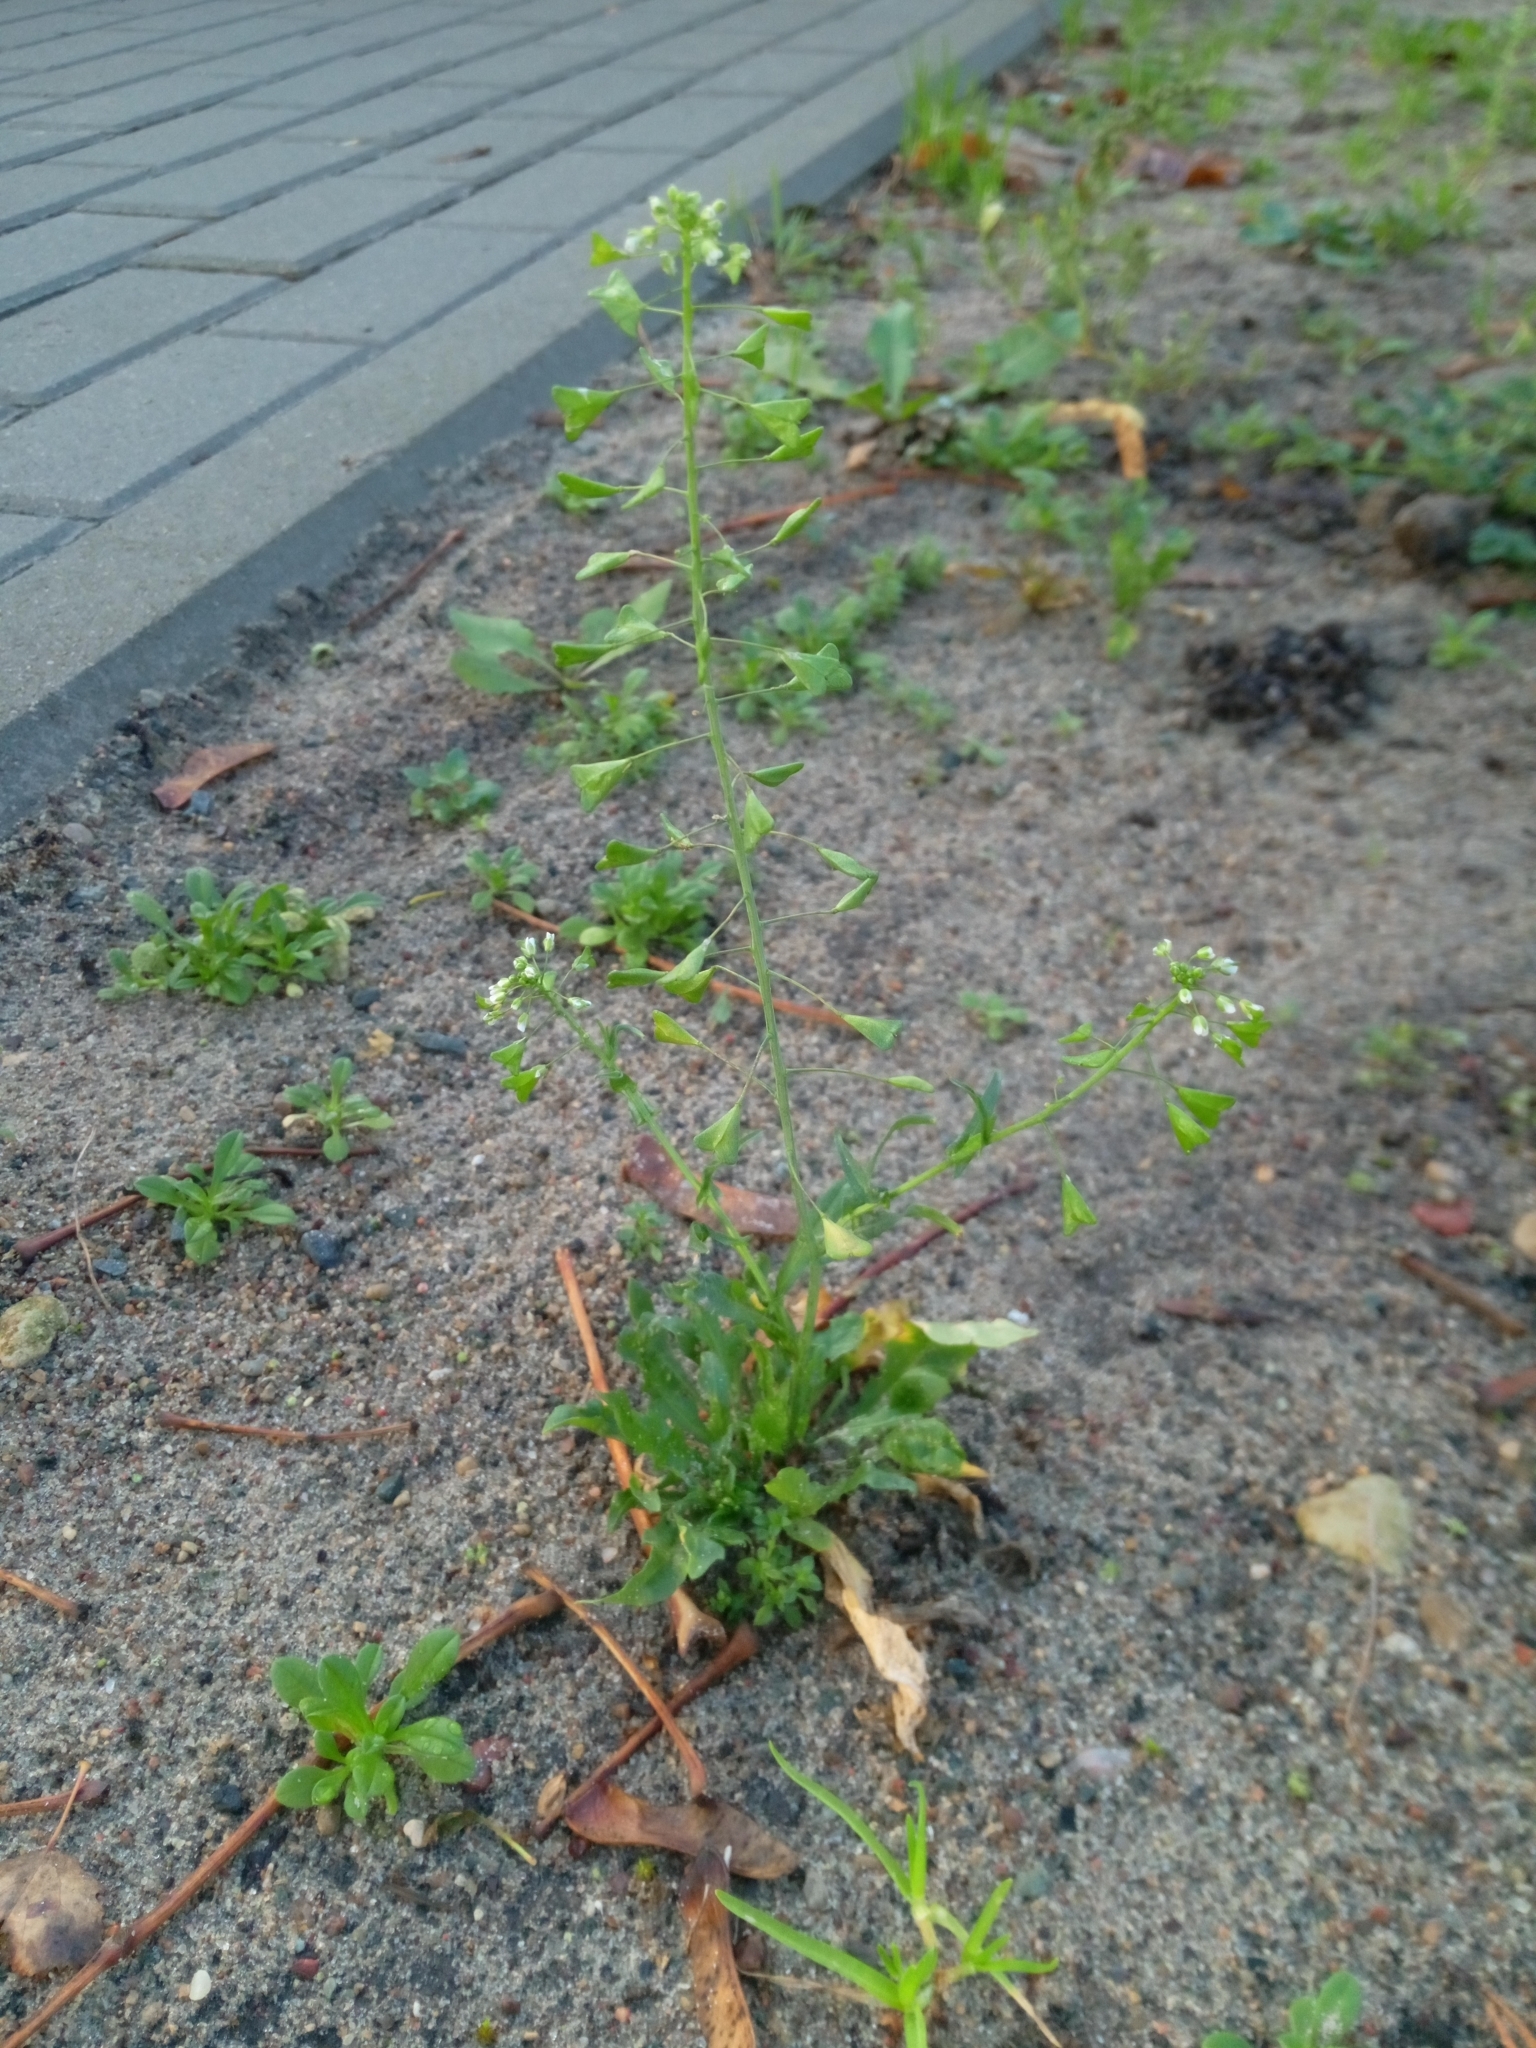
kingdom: Plantae
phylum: Tracheophyta
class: Magnoliopsida
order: Brassicales
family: Brassicaceae
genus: Capsella
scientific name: Capsella bursa-pastoris
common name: Shepherd's purse
